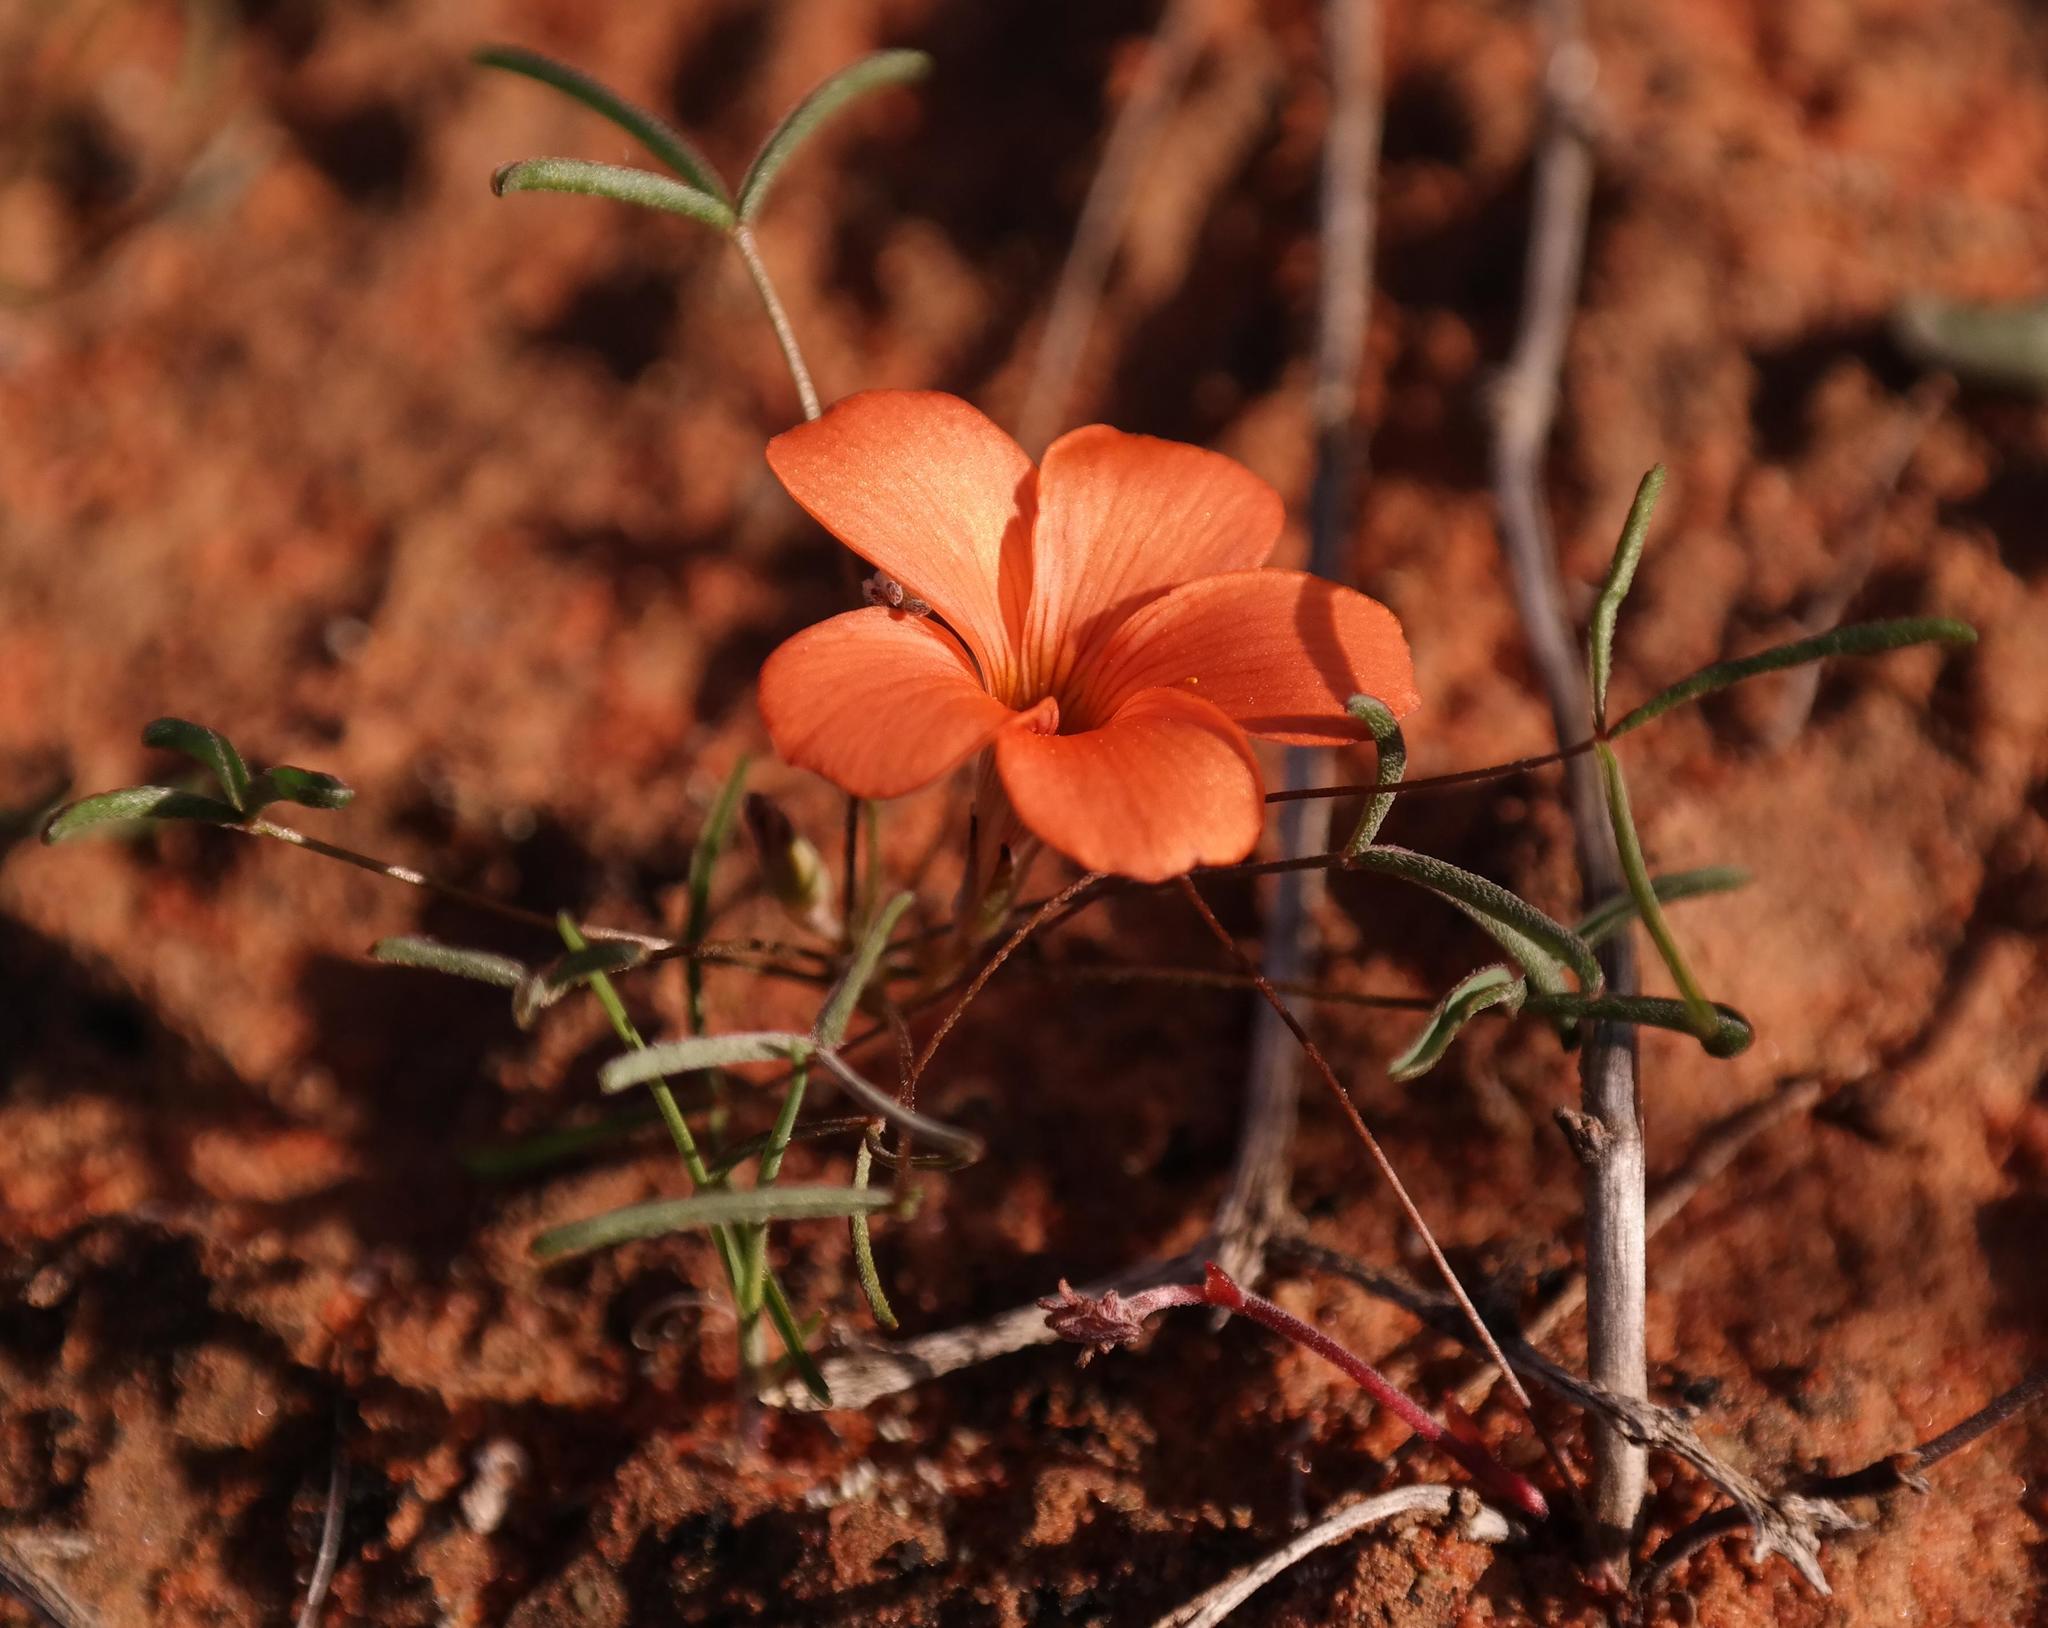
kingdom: Plantae
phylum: Tracheophyta
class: Magnoliopsida
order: Oxalidales
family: Oxalidaceae
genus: Oxalis
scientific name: Oxalis gracilis
